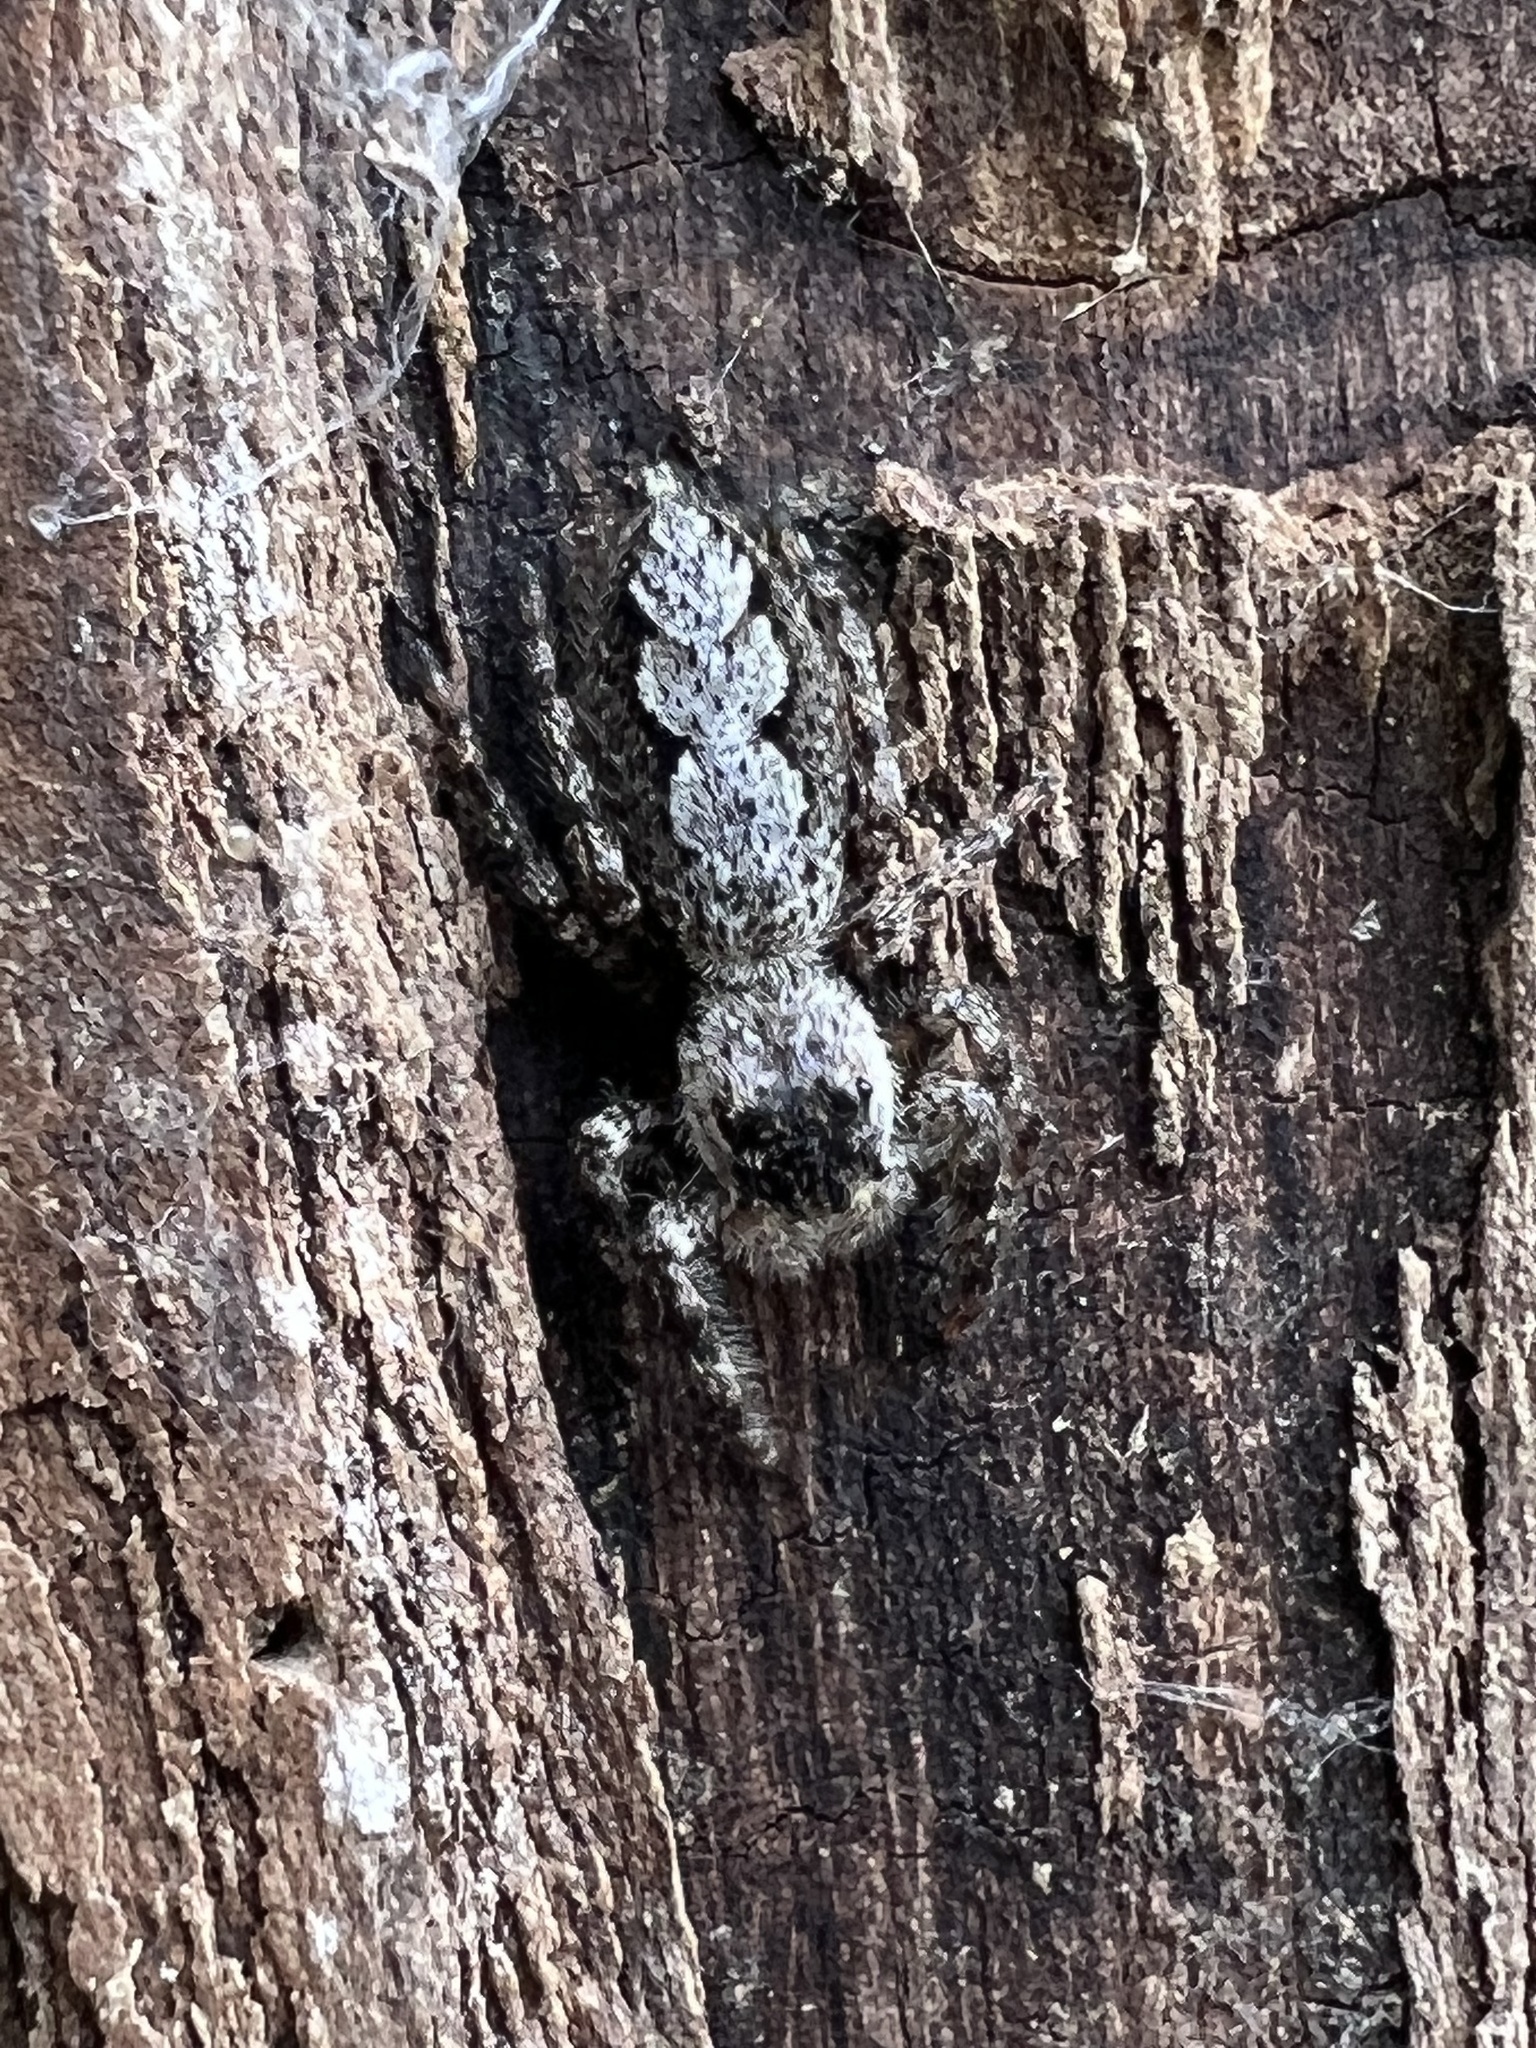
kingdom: Animalia
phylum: Arthropoda
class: Arachnida
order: Araneae
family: Salticidae
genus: Platycryptus
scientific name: Platycryptus undatus
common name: Tan jumping spider
